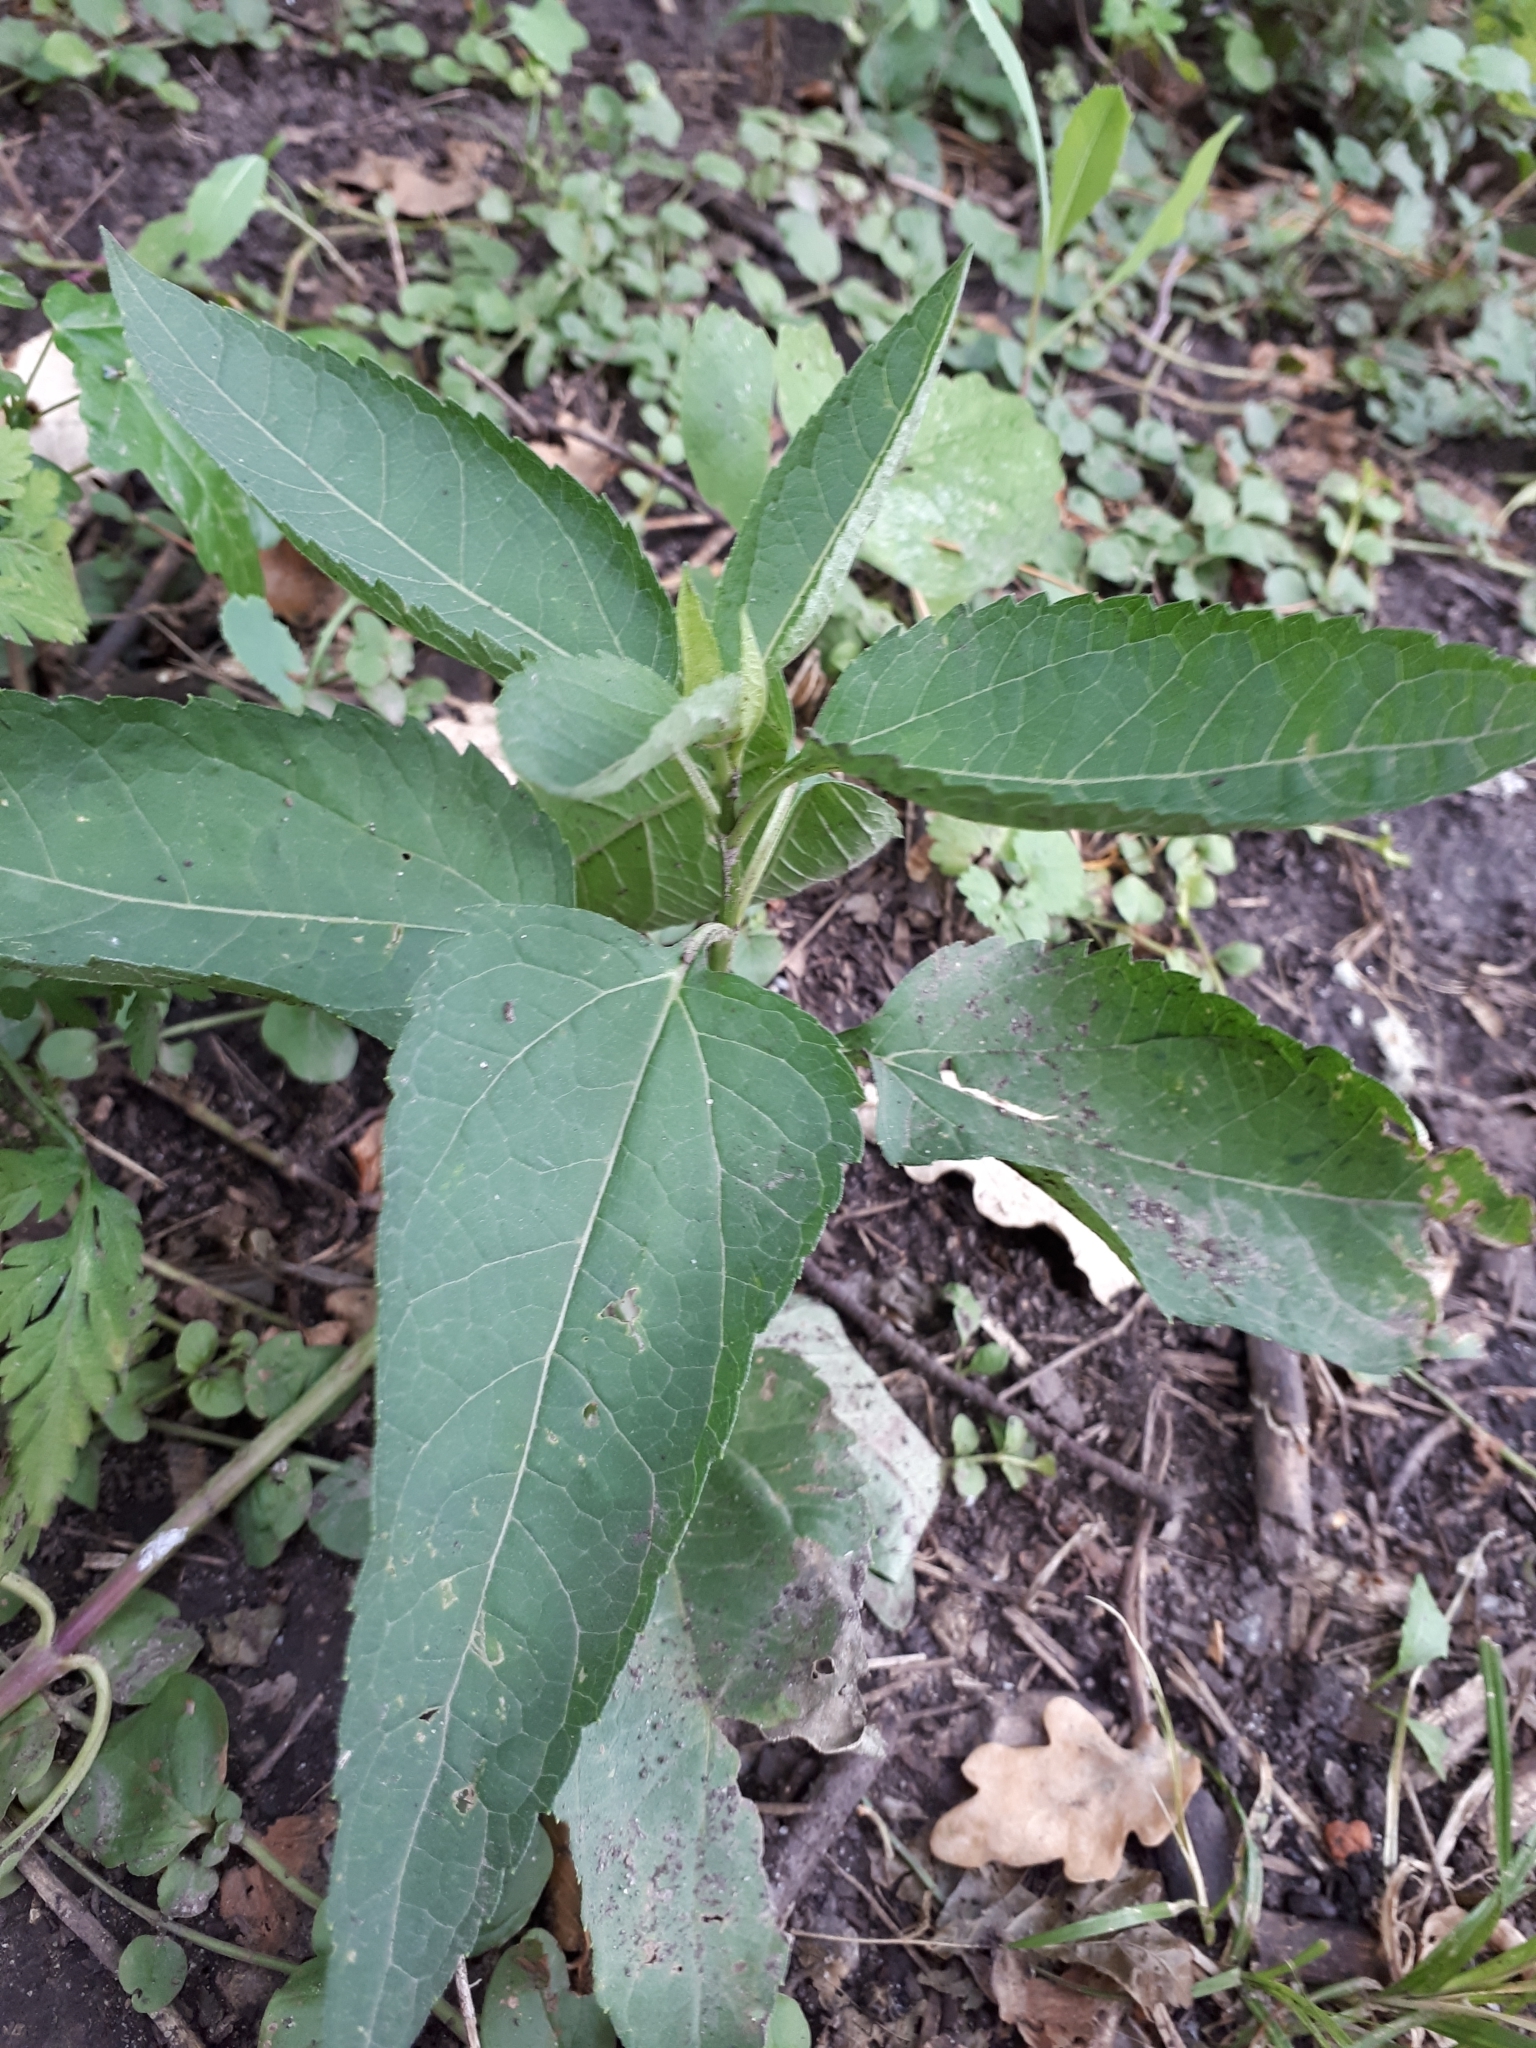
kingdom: Plantae
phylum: Tracheophyta
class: Magnoliopsida
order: Asterales
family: Asteraceae
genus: Heliopsis
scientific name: Heliopsis helianthoides
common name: False sunflower
